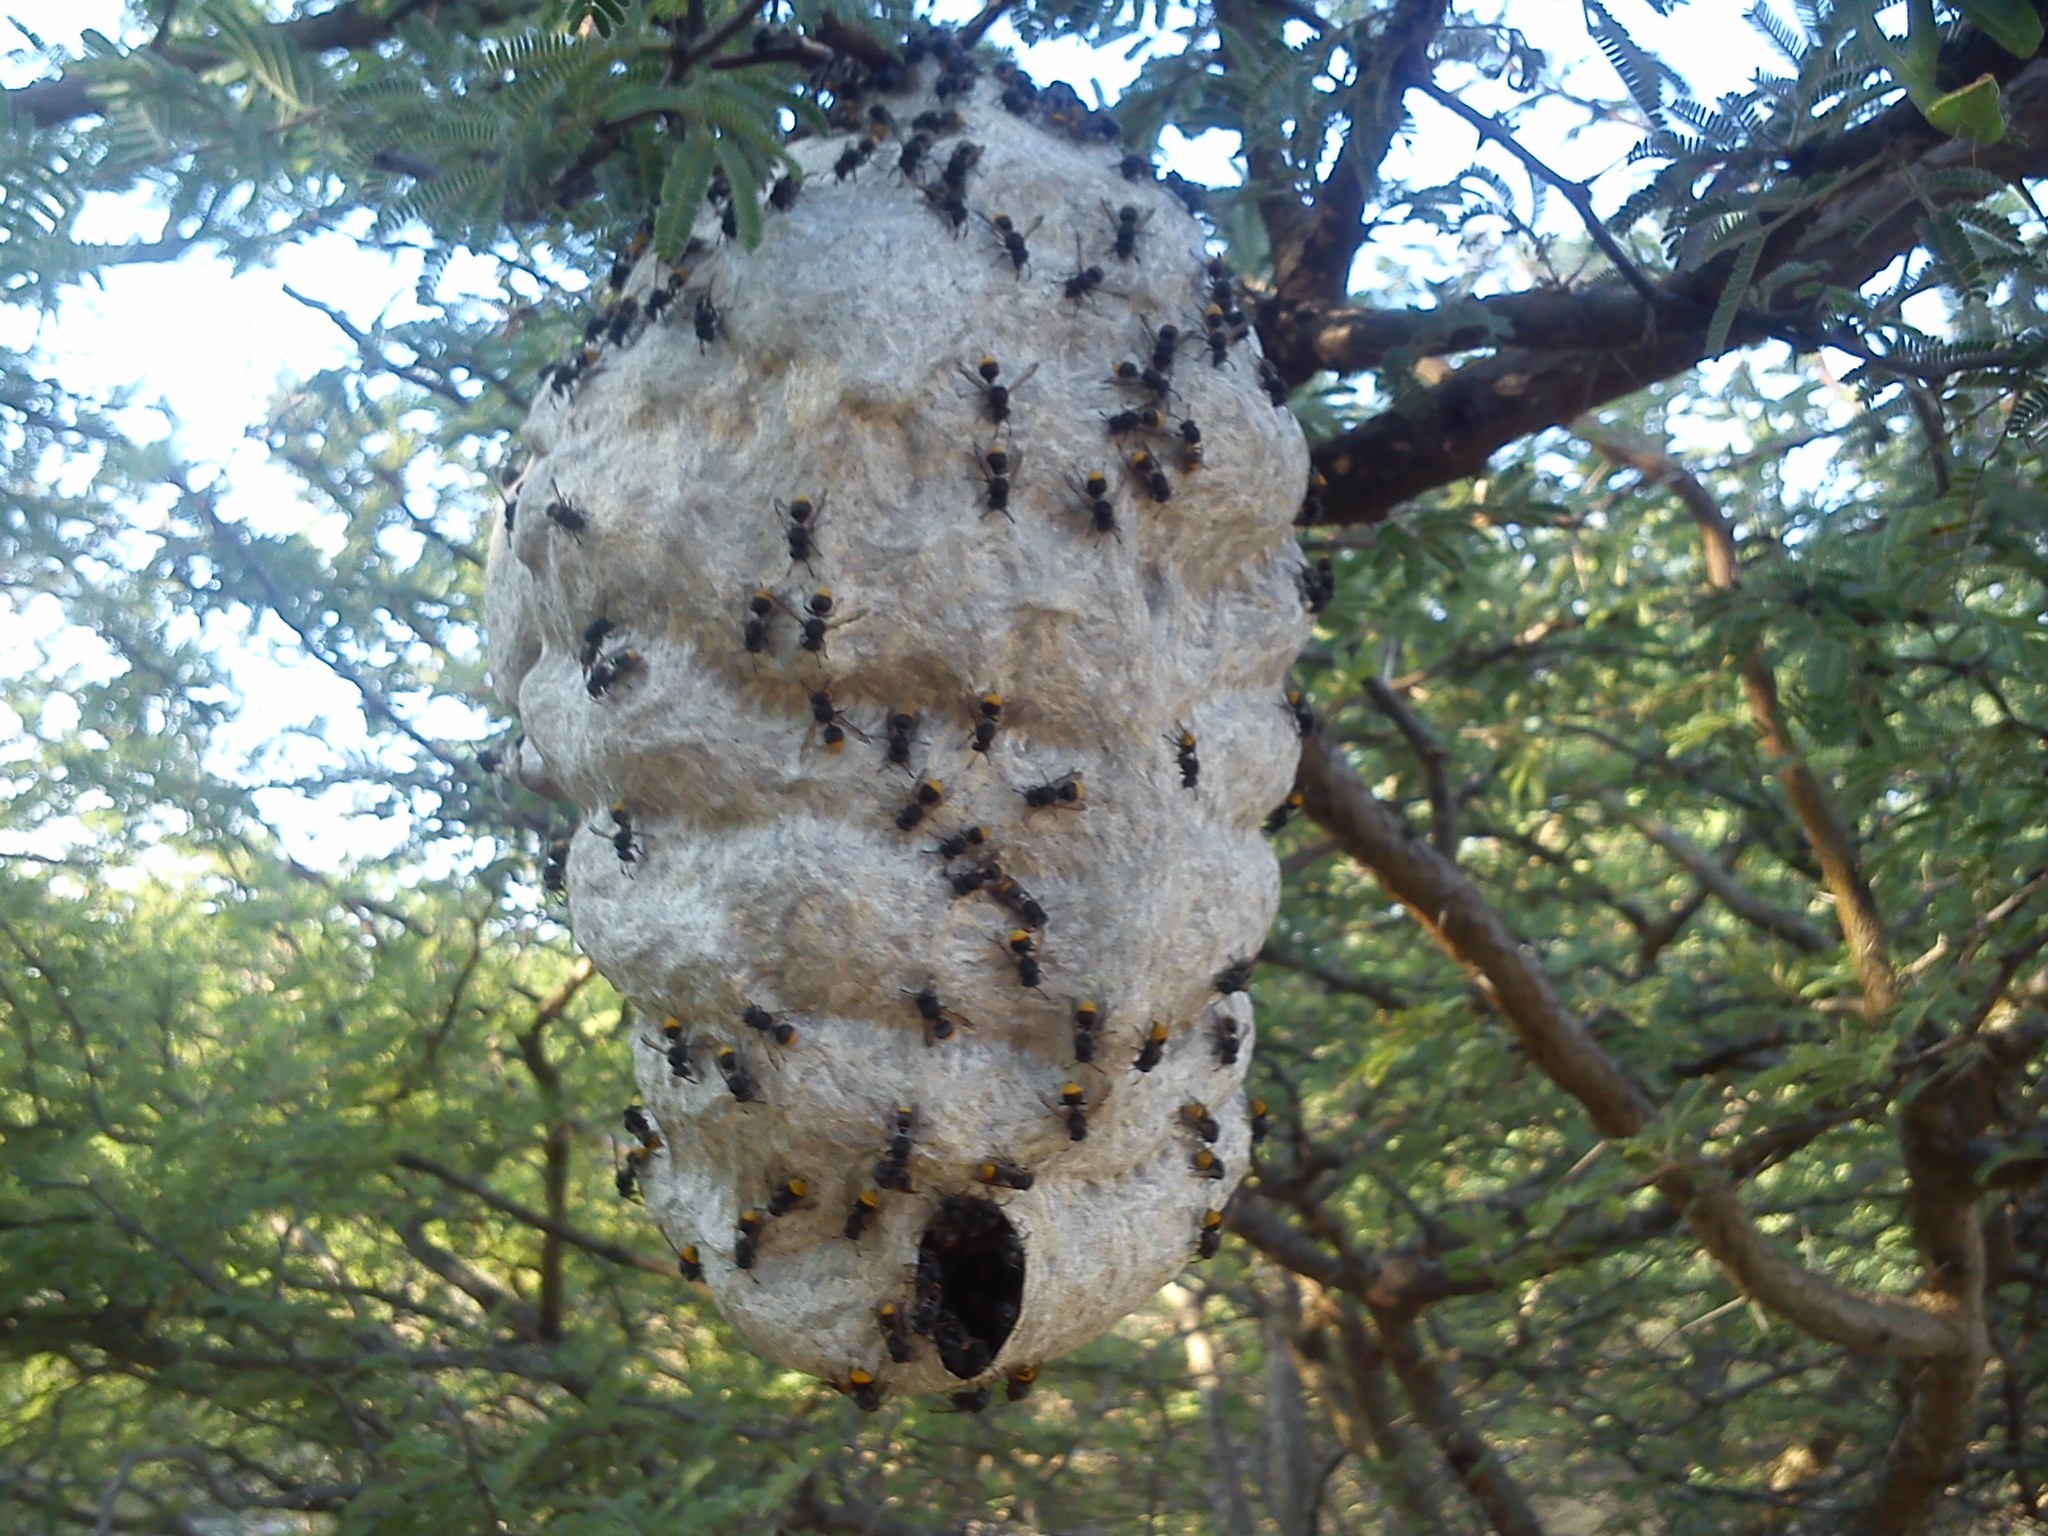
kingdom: Animalia
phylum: Arthropoda
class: Insecta
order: Hymenoptera
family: Vespidae
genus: Brachygastra
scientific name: Brachygastra azteca
